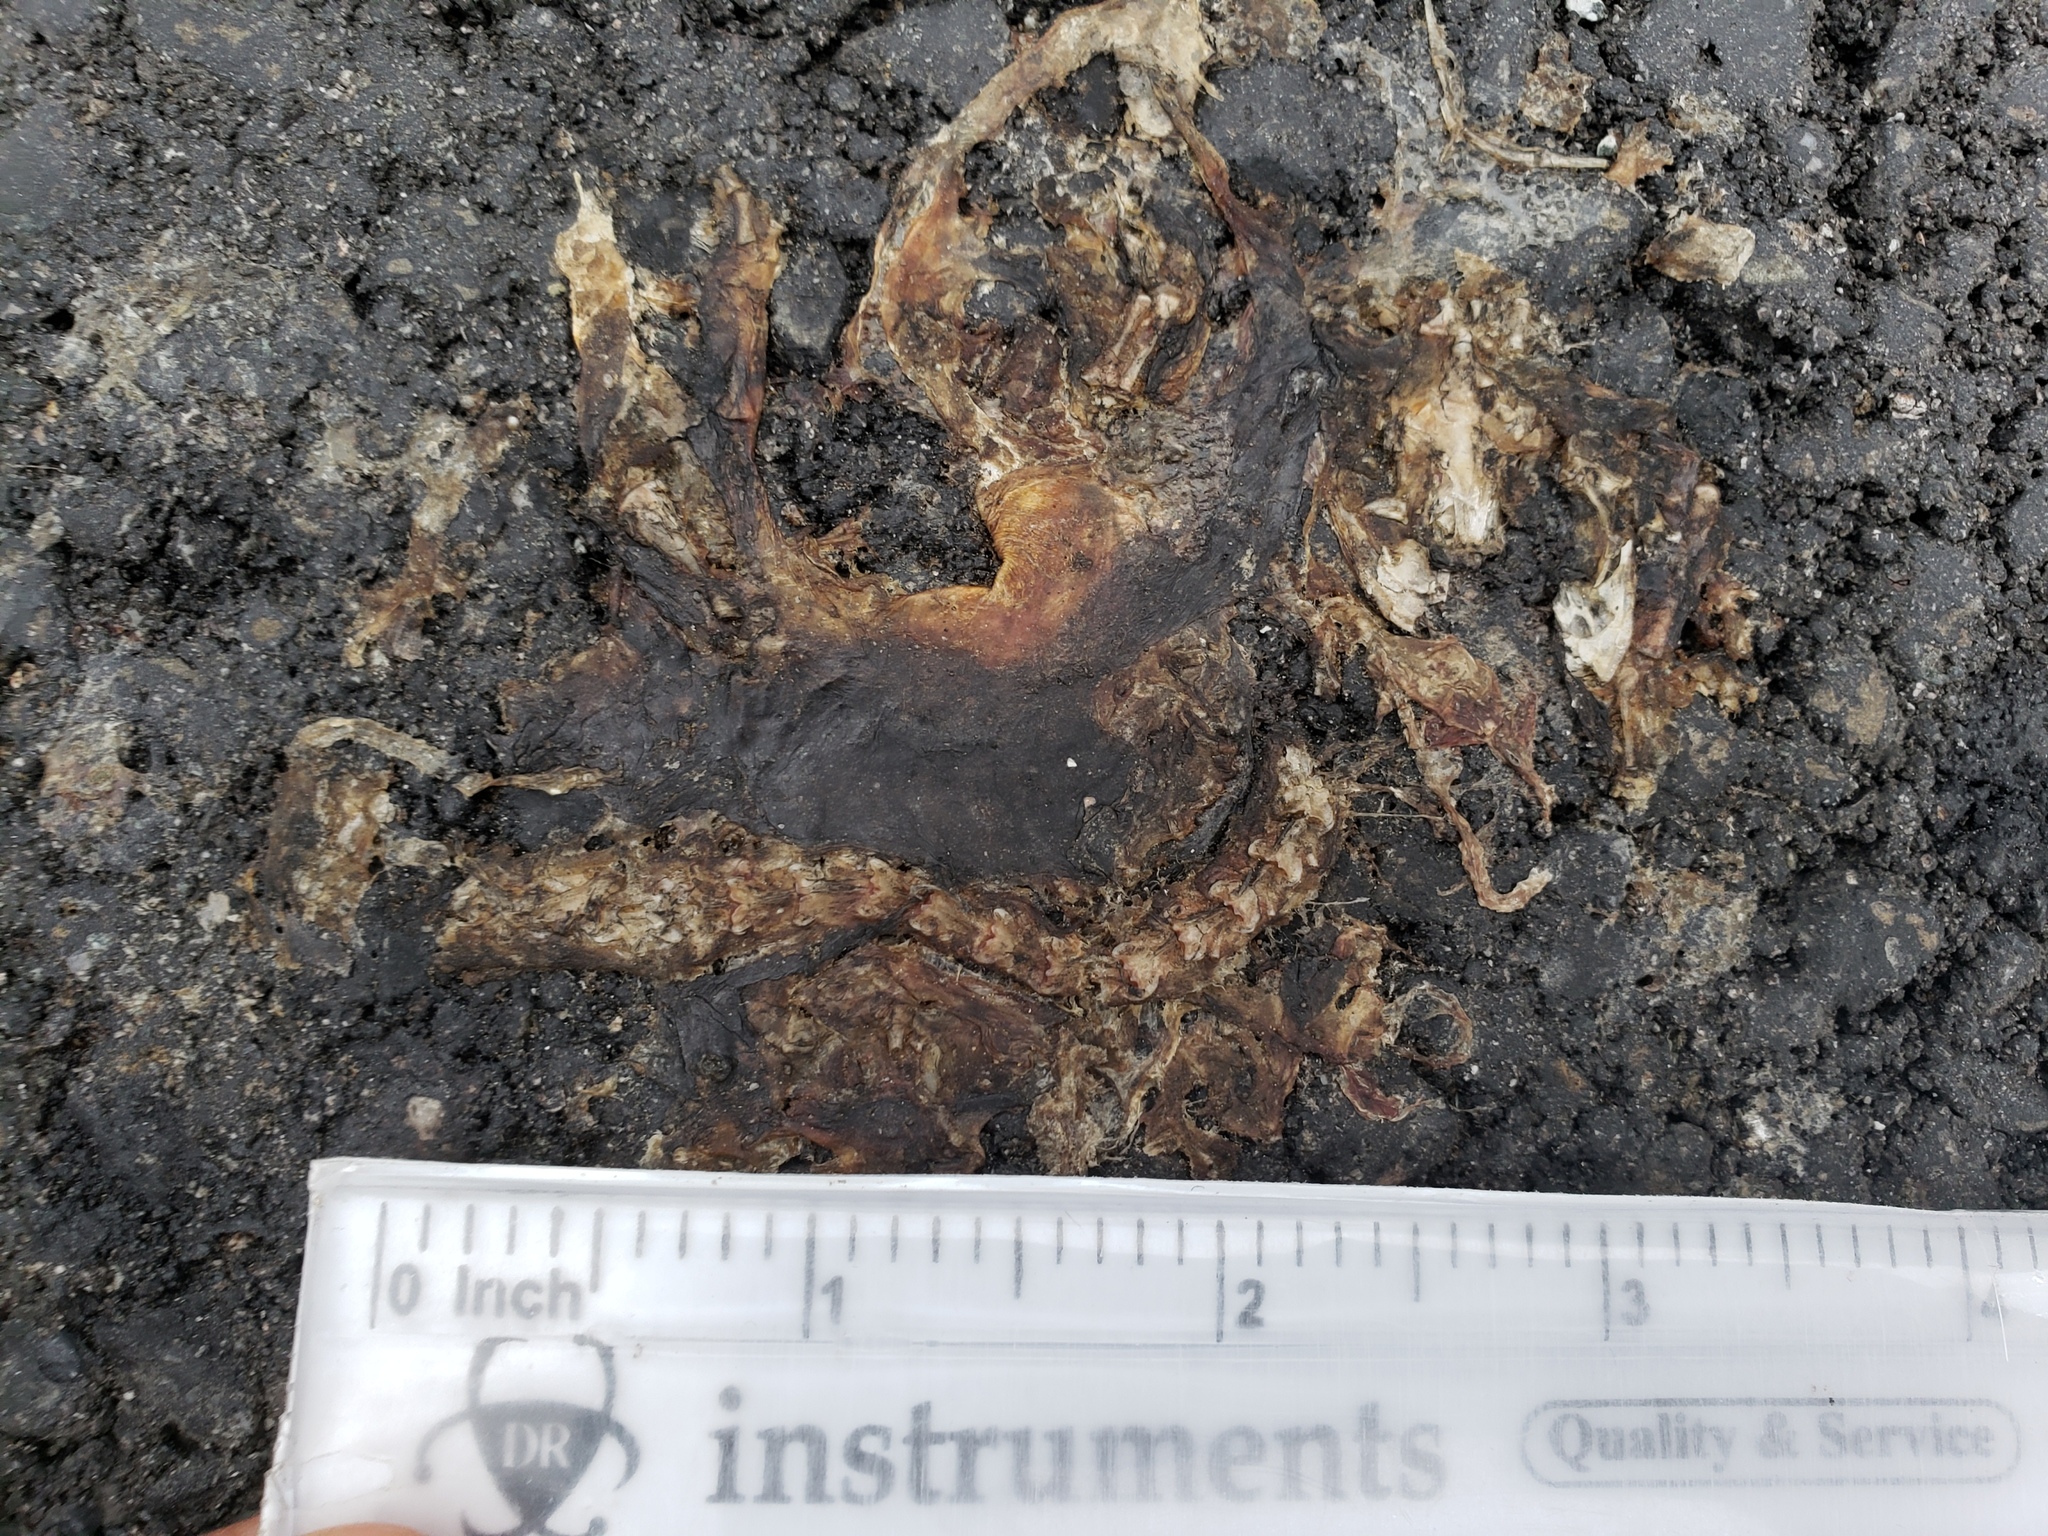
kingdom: Animalia
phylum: Chordata
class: Amphibia
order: Caudata
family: Salamandridae
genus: Taricha
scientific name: Taricha
